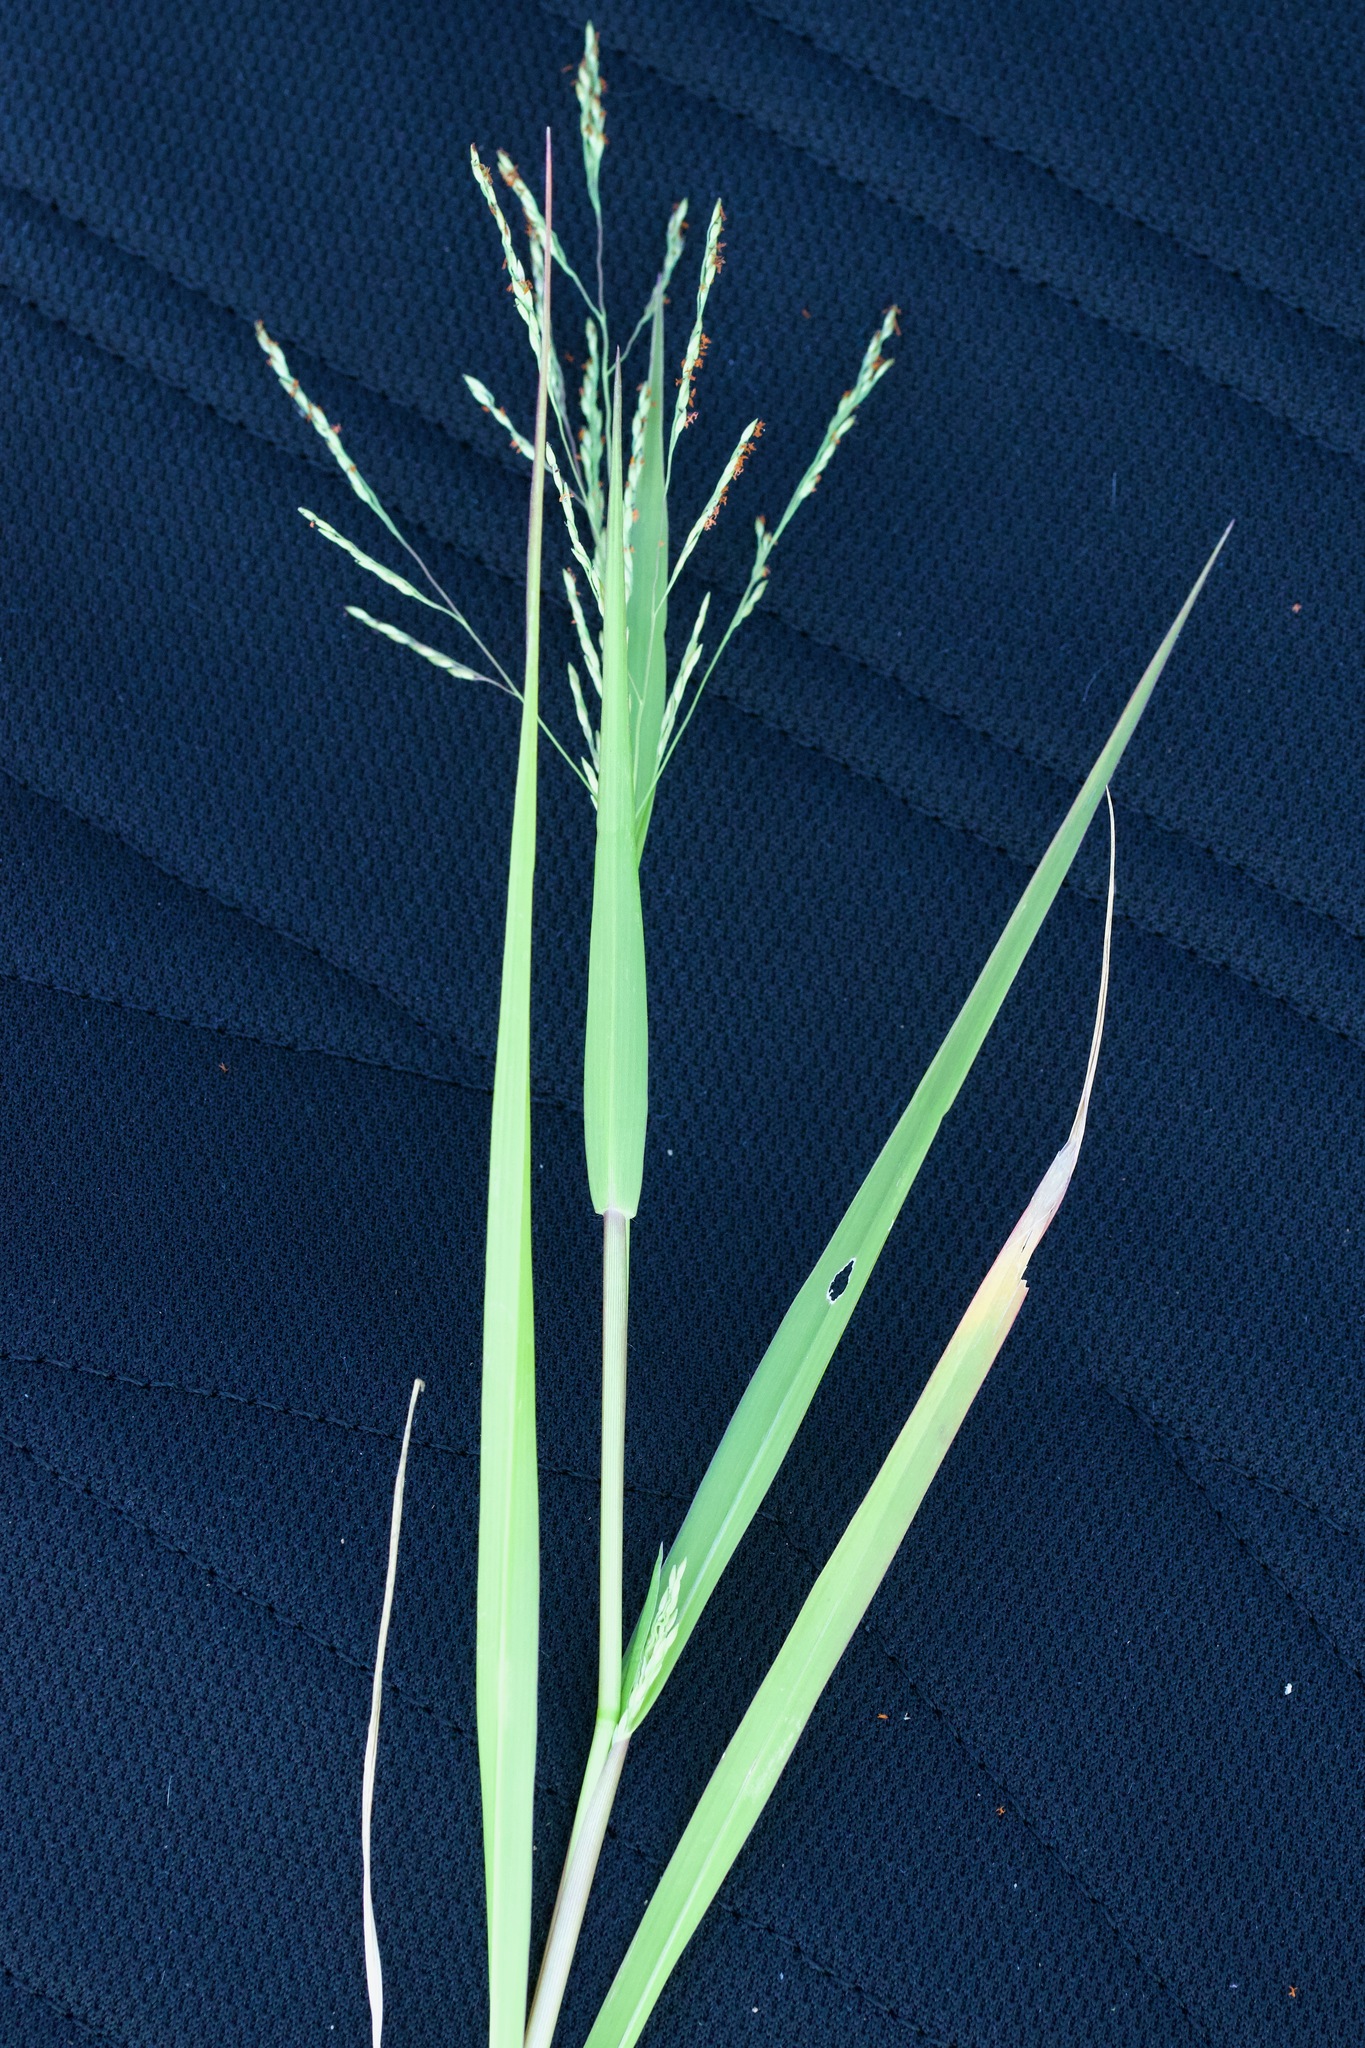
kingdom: Plantae
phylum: Tracheophyta
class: Liliopsida
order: Poales
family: Poaceae
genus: Panicum
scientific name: Panicum dichotomiflorum
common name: Autumn millet
